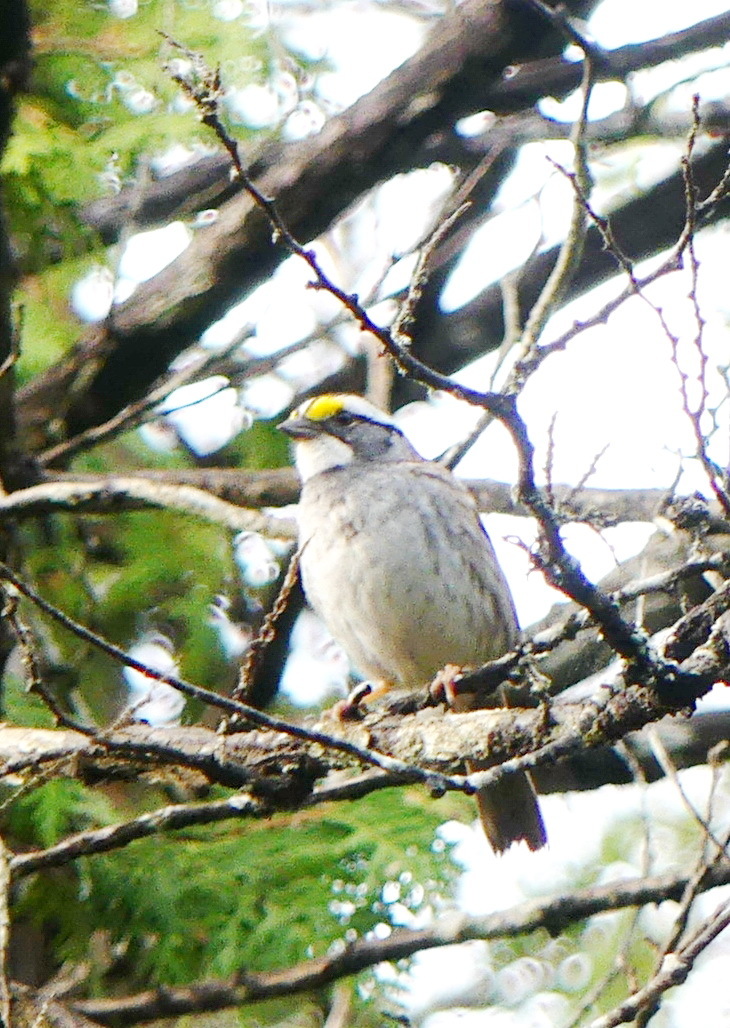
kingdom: Animalia
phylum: Chordata
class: Aves
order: Passeriformes
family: Passerellidae
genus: Zonotrichia
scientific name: Zonotrichia albicollis
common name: White-throated sparrow
